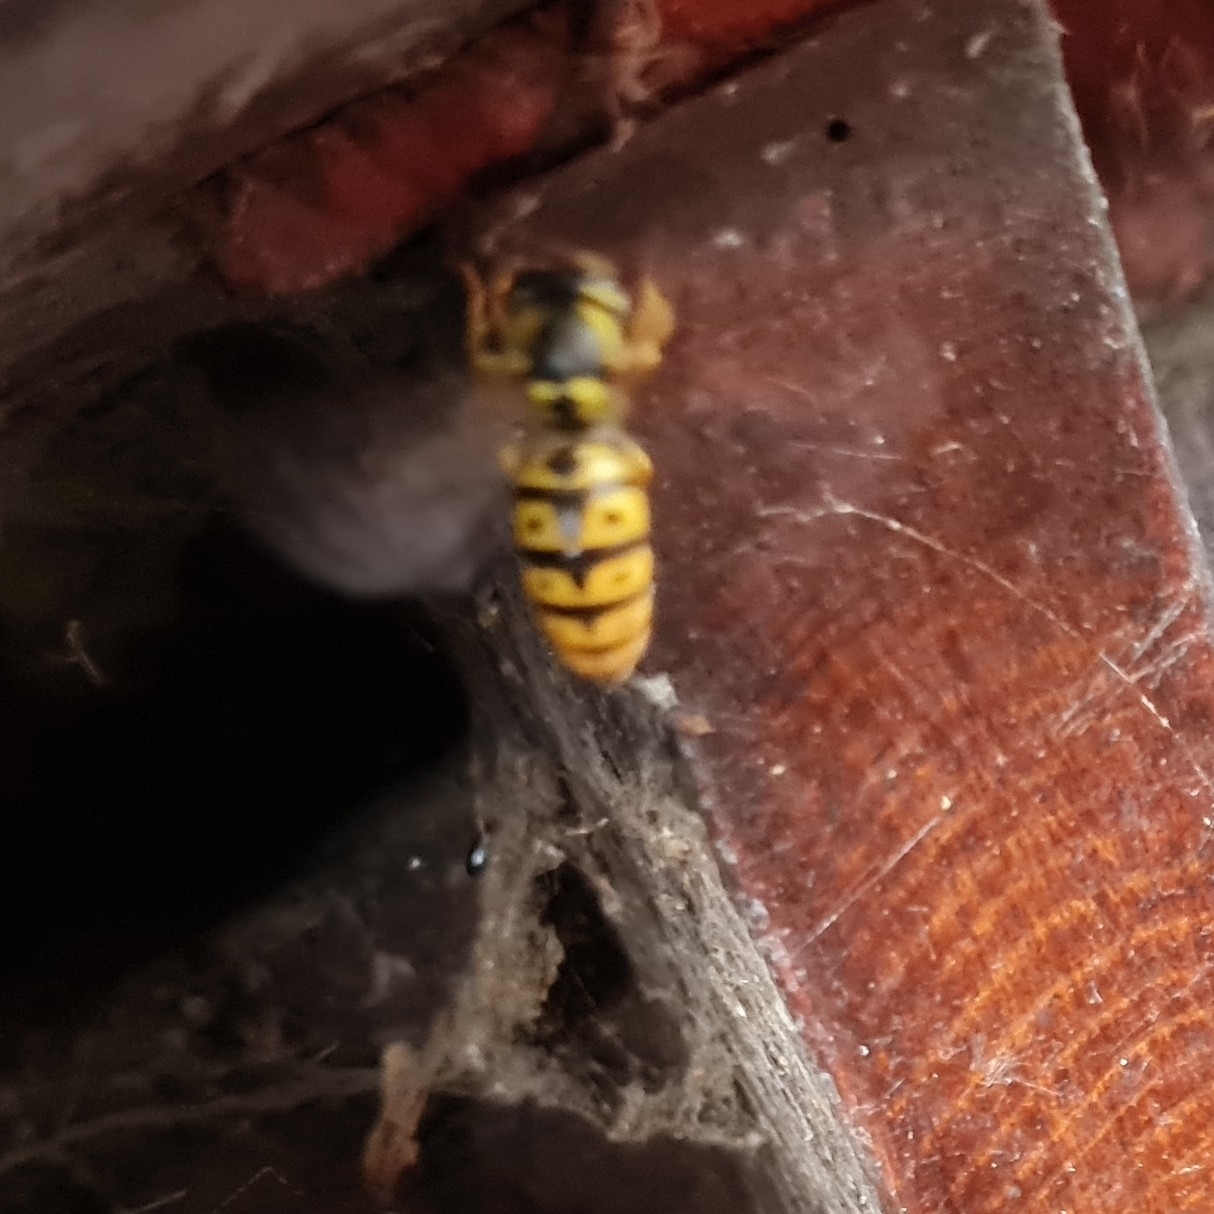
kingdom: Animalia
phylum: Arthropoda
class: Insecta
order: Hymenoptera
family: Vespidae
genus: Vespula
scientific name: Vespula germanica
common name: German wasp
